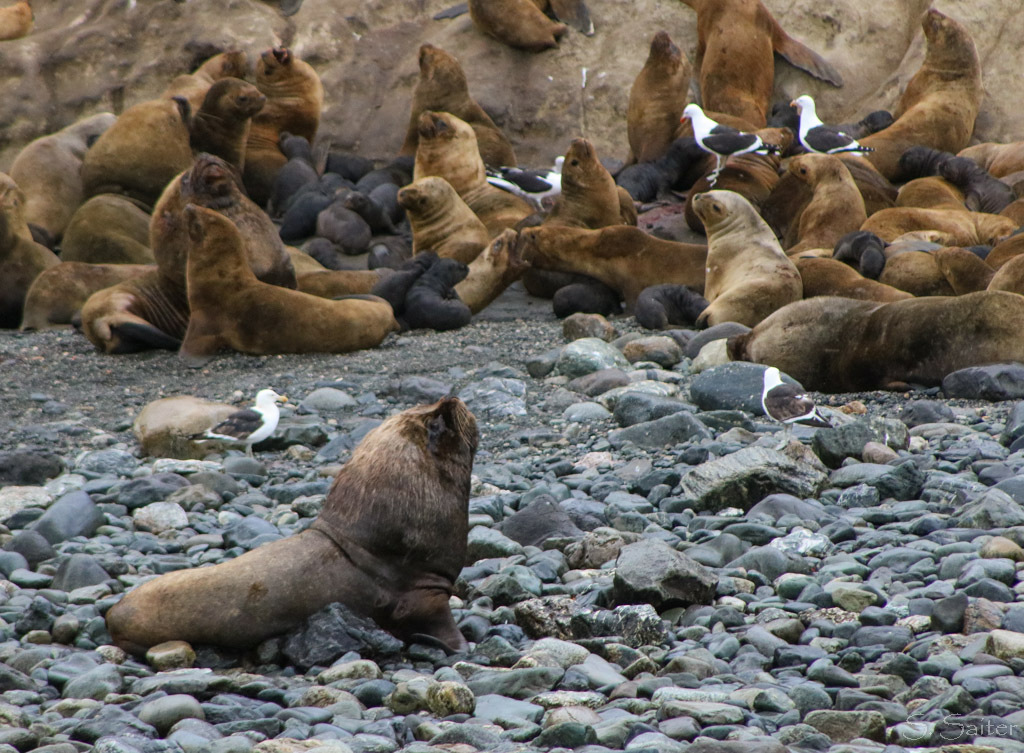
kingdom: Animalia
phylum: Chordata
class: Mammalia
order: Carnivora
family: Otariidae
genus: Otaria
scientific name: Otaria byronia
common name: South american sea lion
